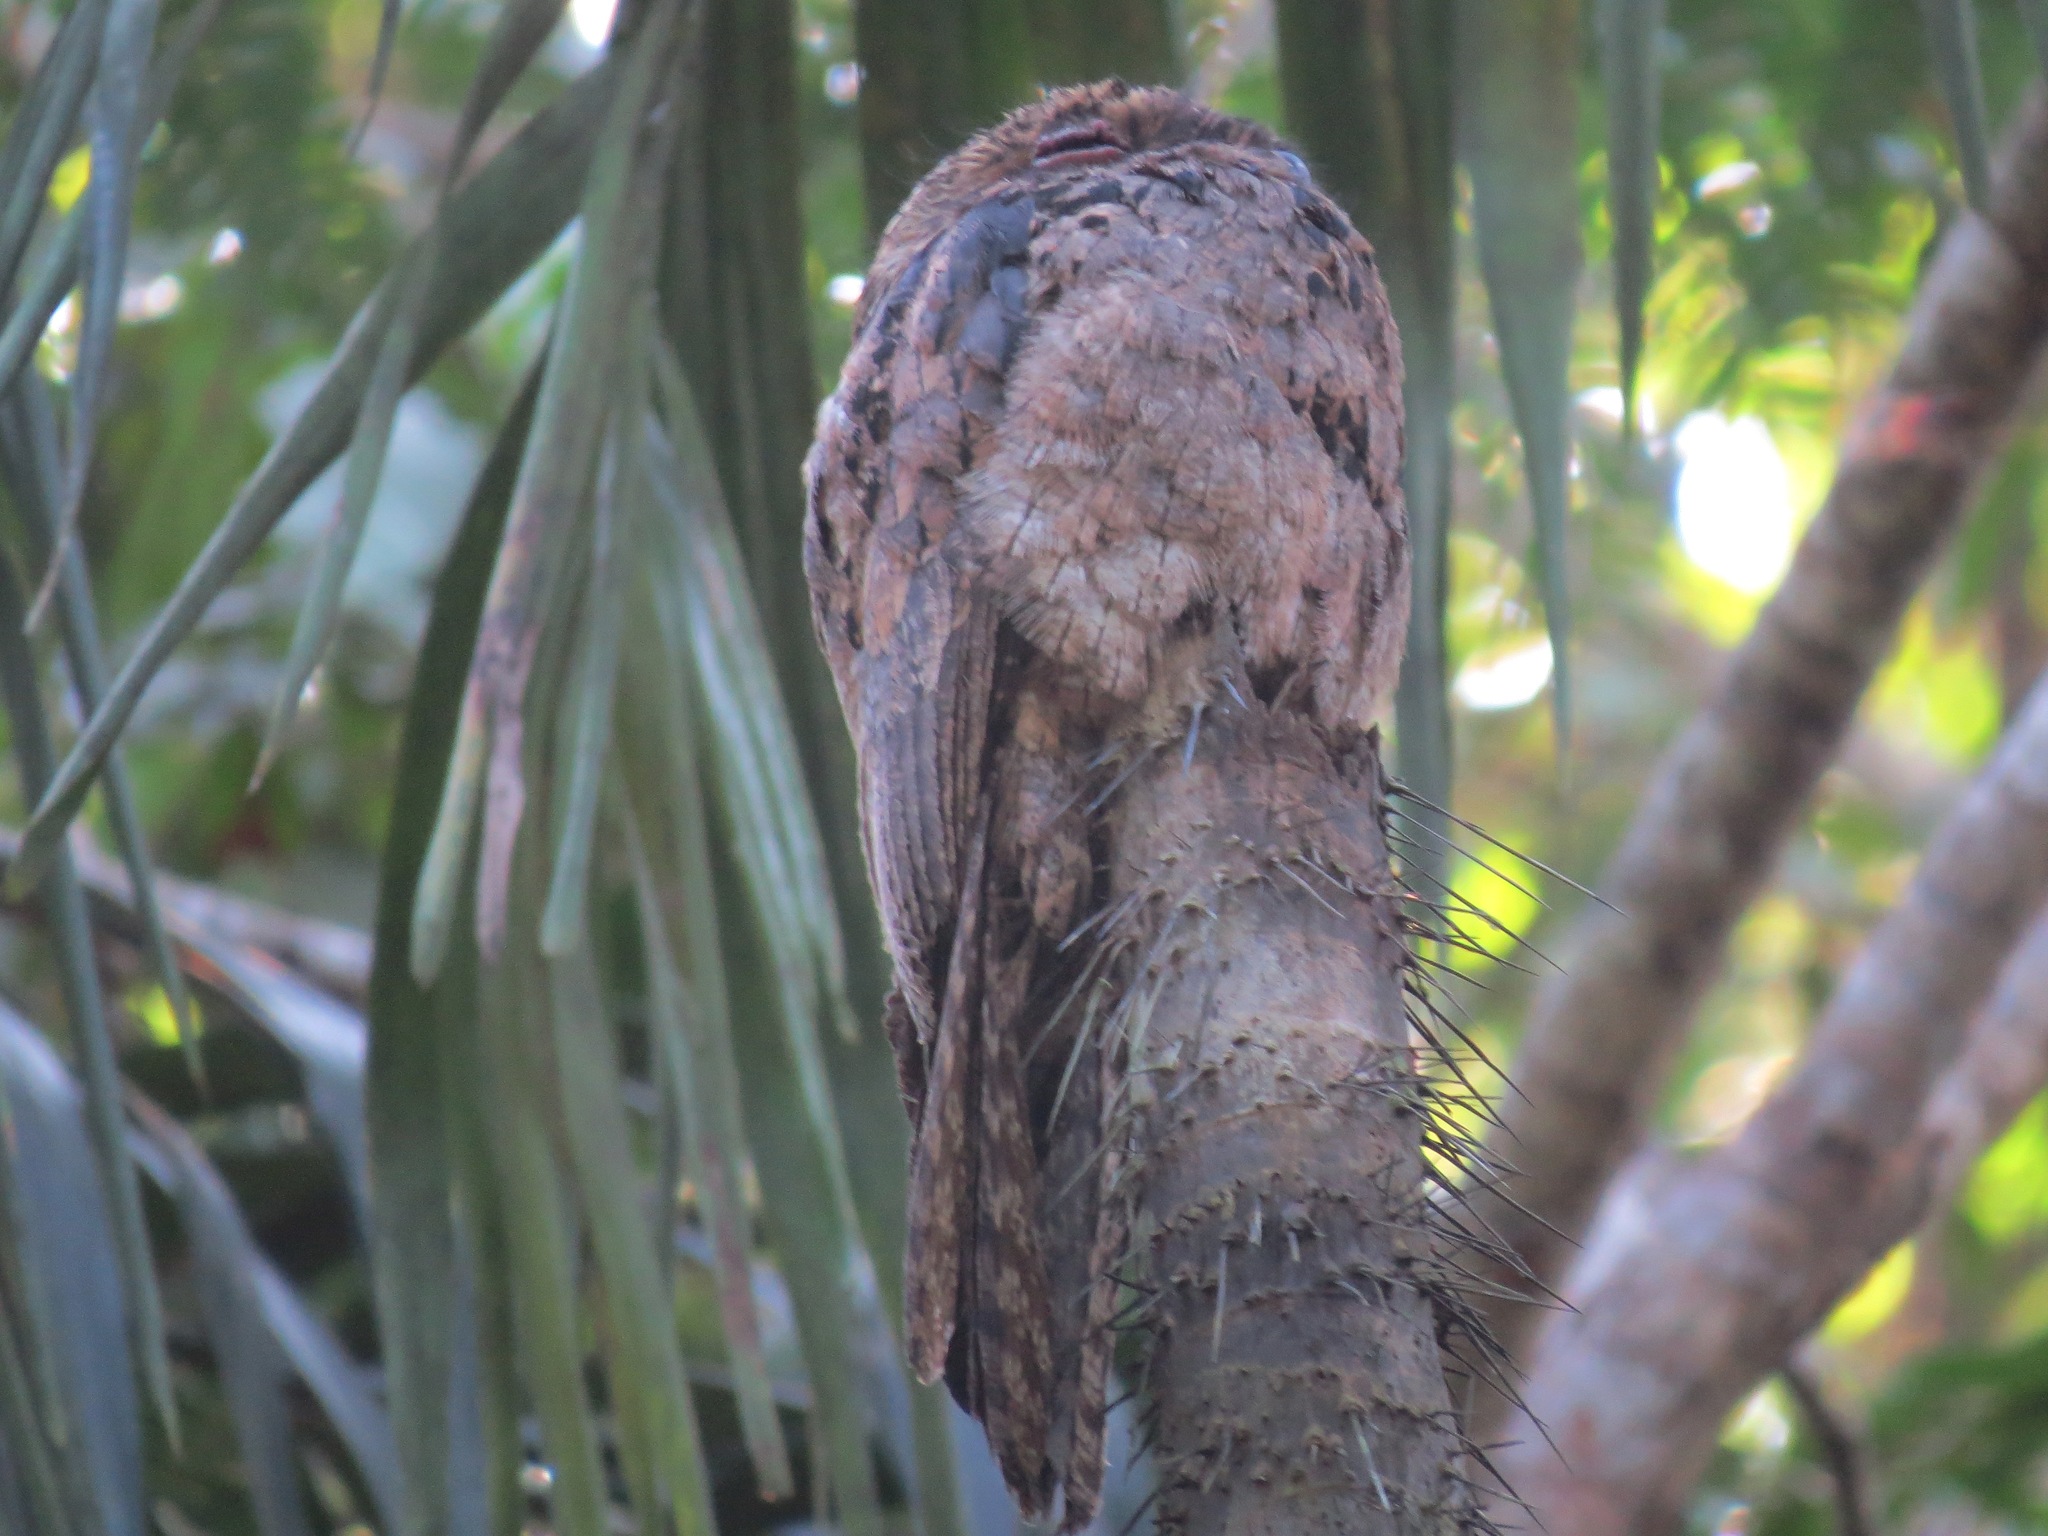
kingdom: Animalia
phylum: Chordata
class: Aves
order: Nyctibiiformes
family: Nyctibiidae
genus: Nyctibius
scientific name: Nyctibius griseus
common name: Common potoo
